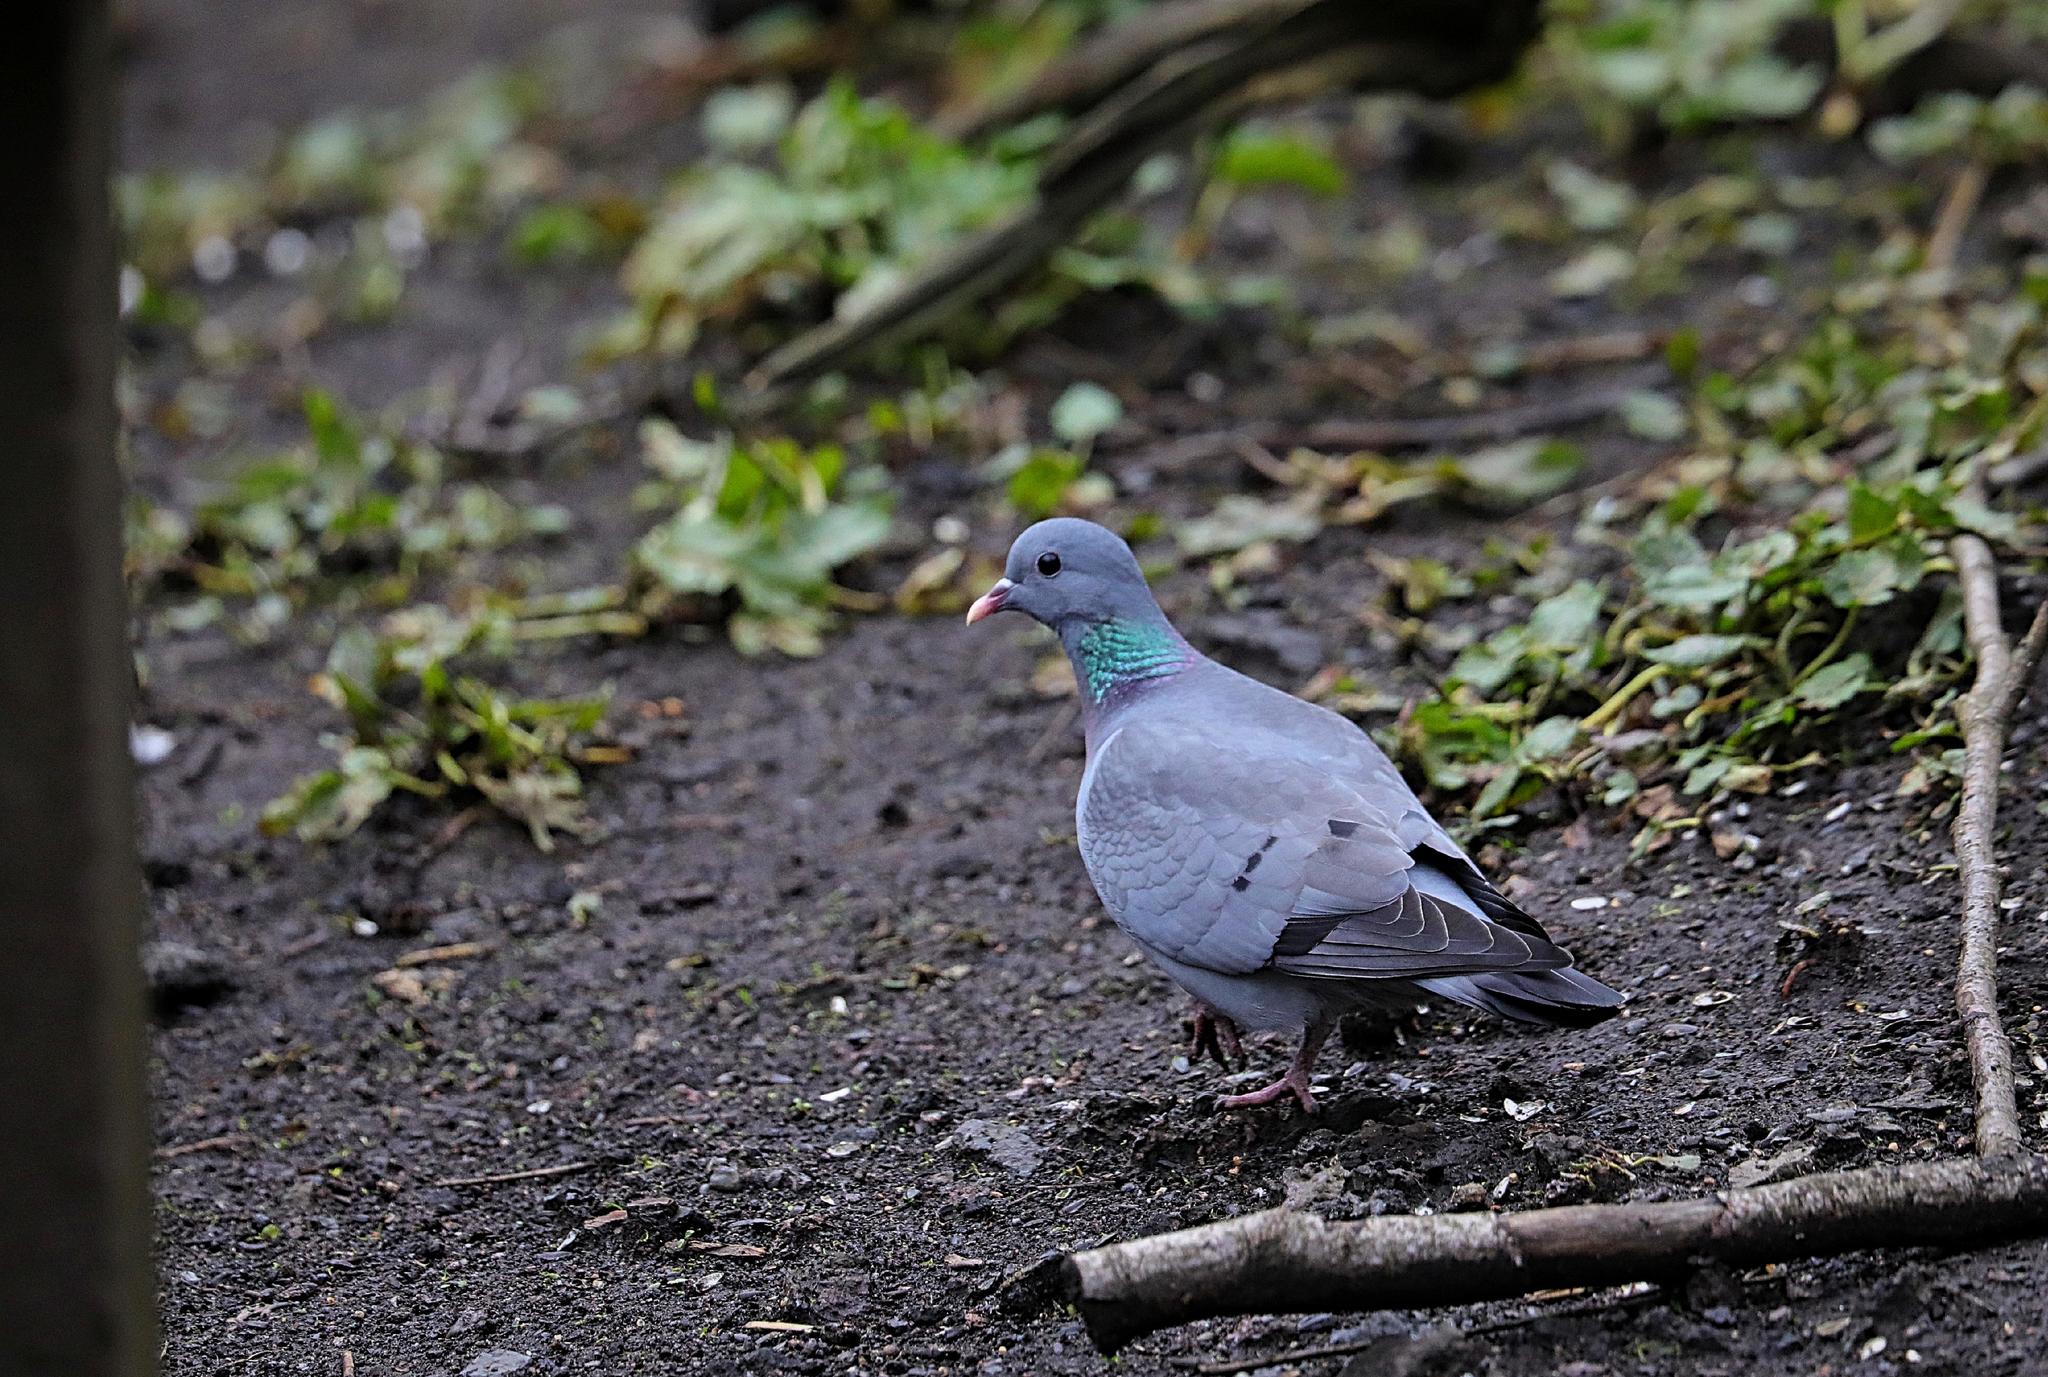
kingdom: Animalia
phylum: Chordata
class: Aves
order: Columbiformes
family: Columbidae
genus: Columba
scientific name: Columba oenas
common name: Stock dove
